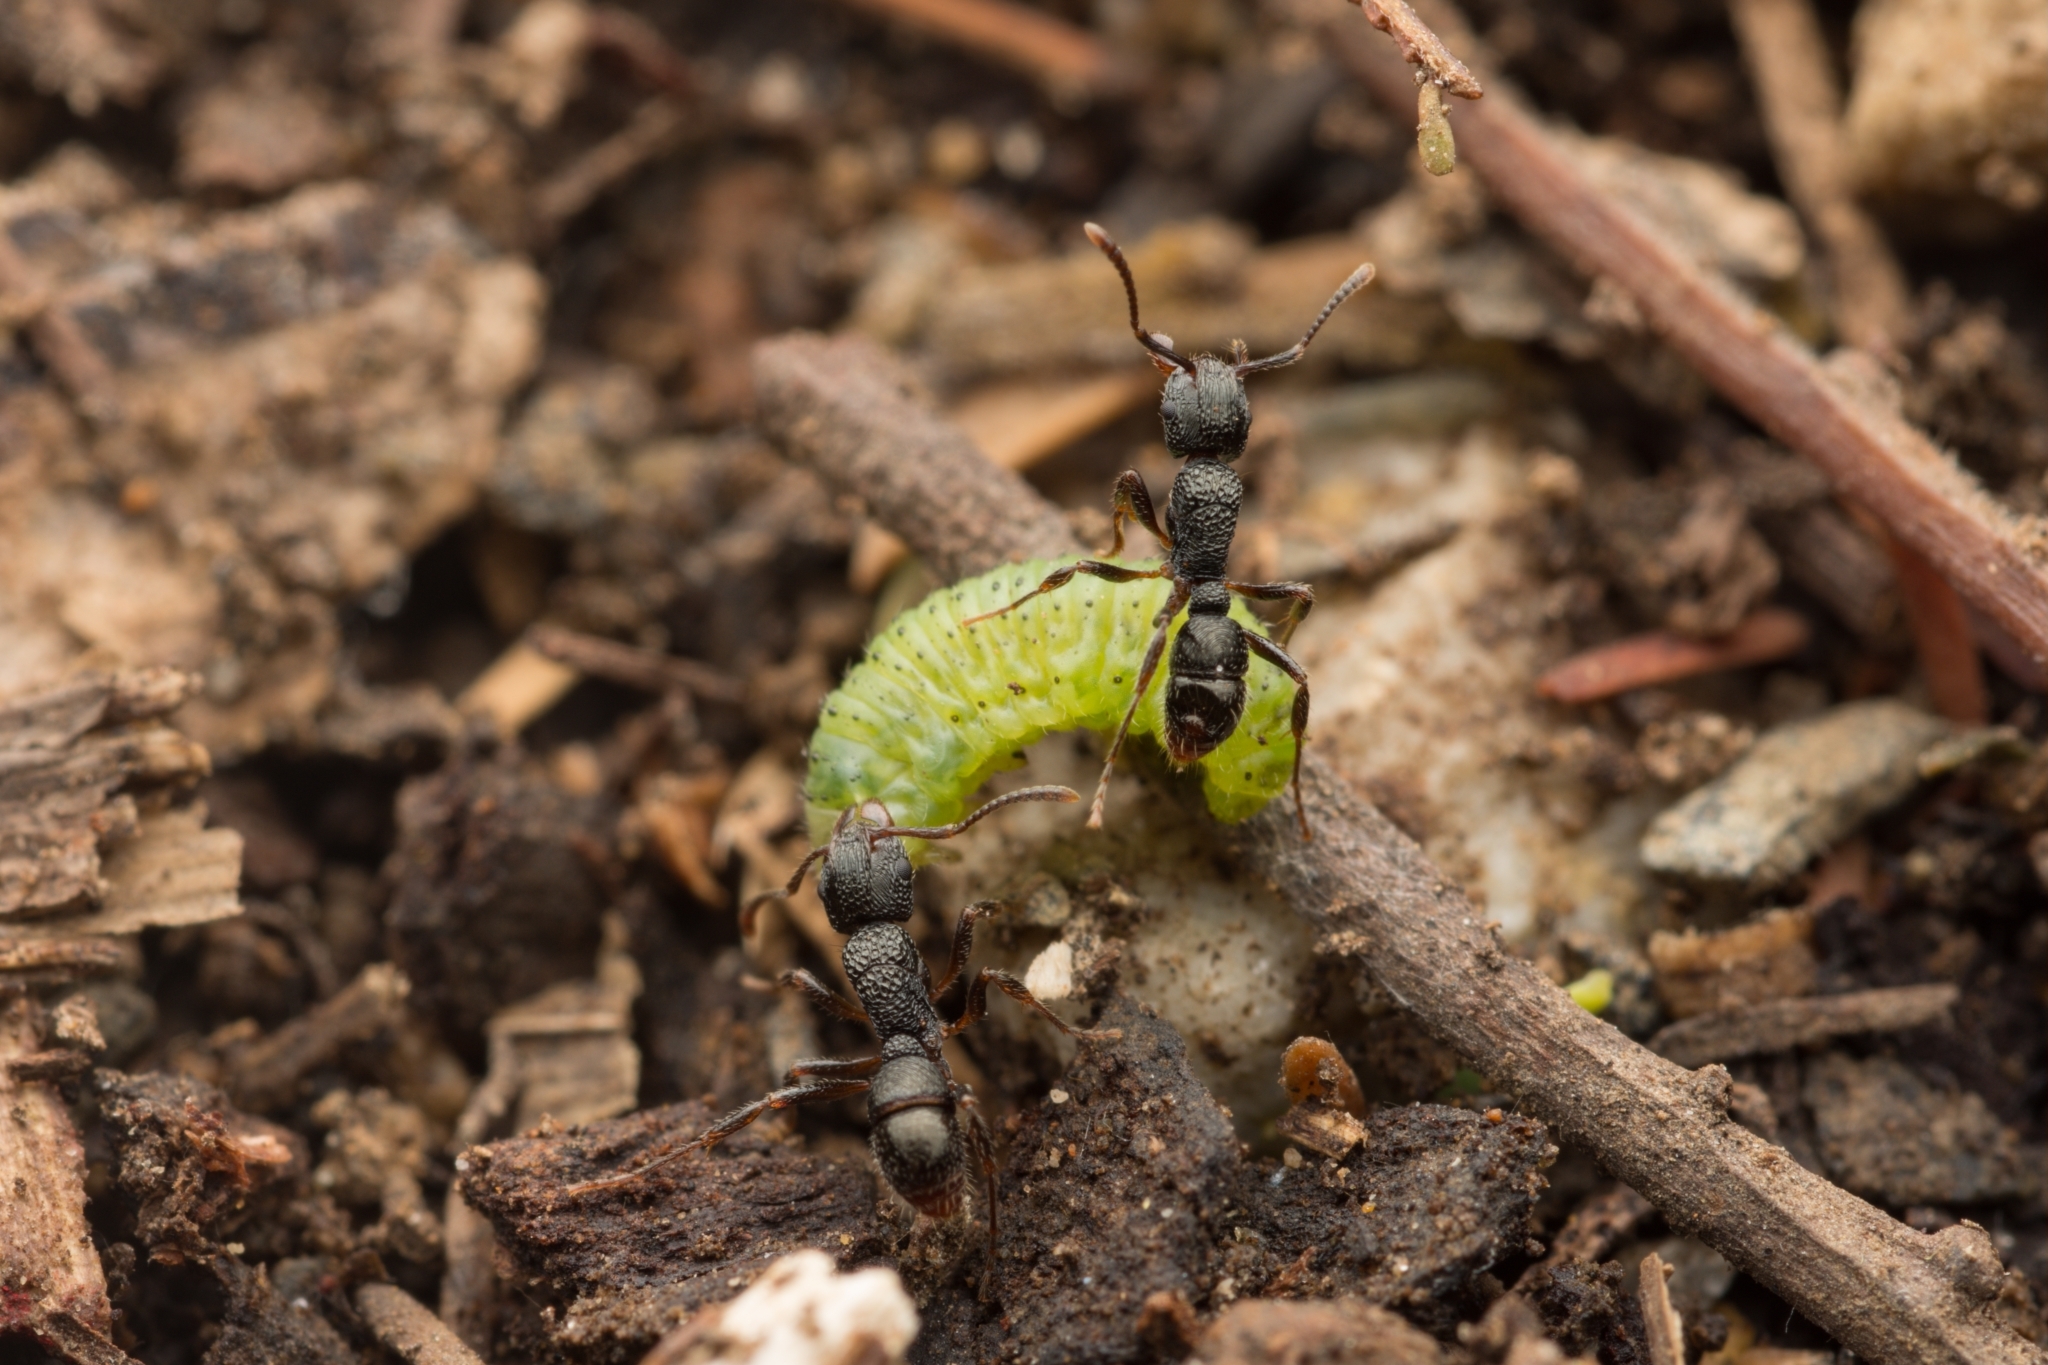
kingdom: Animalia
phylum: Arthropoda
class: Insecta
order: Hymenoptera
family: Formicidae
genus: Rhytidoponera
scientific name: Rhytidoponera victoriae
